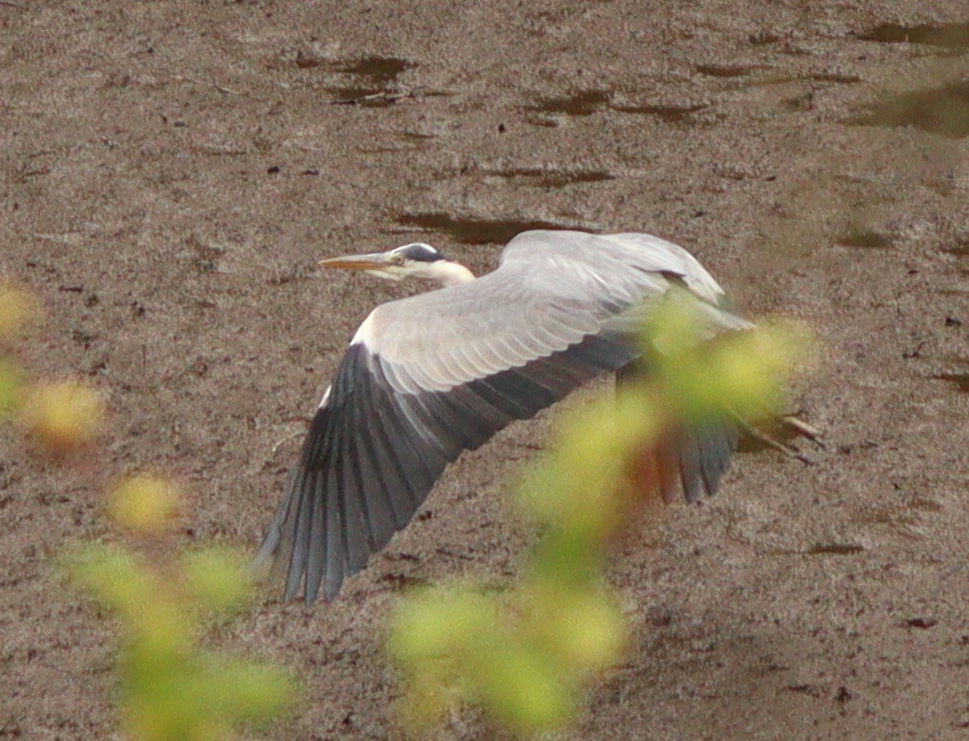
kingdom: Animalia
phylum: Chordata
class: Aves
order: Pelecaniformes
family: Ardeidae
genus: Ardea
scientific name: Ardea cinerea
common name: Grey heron
